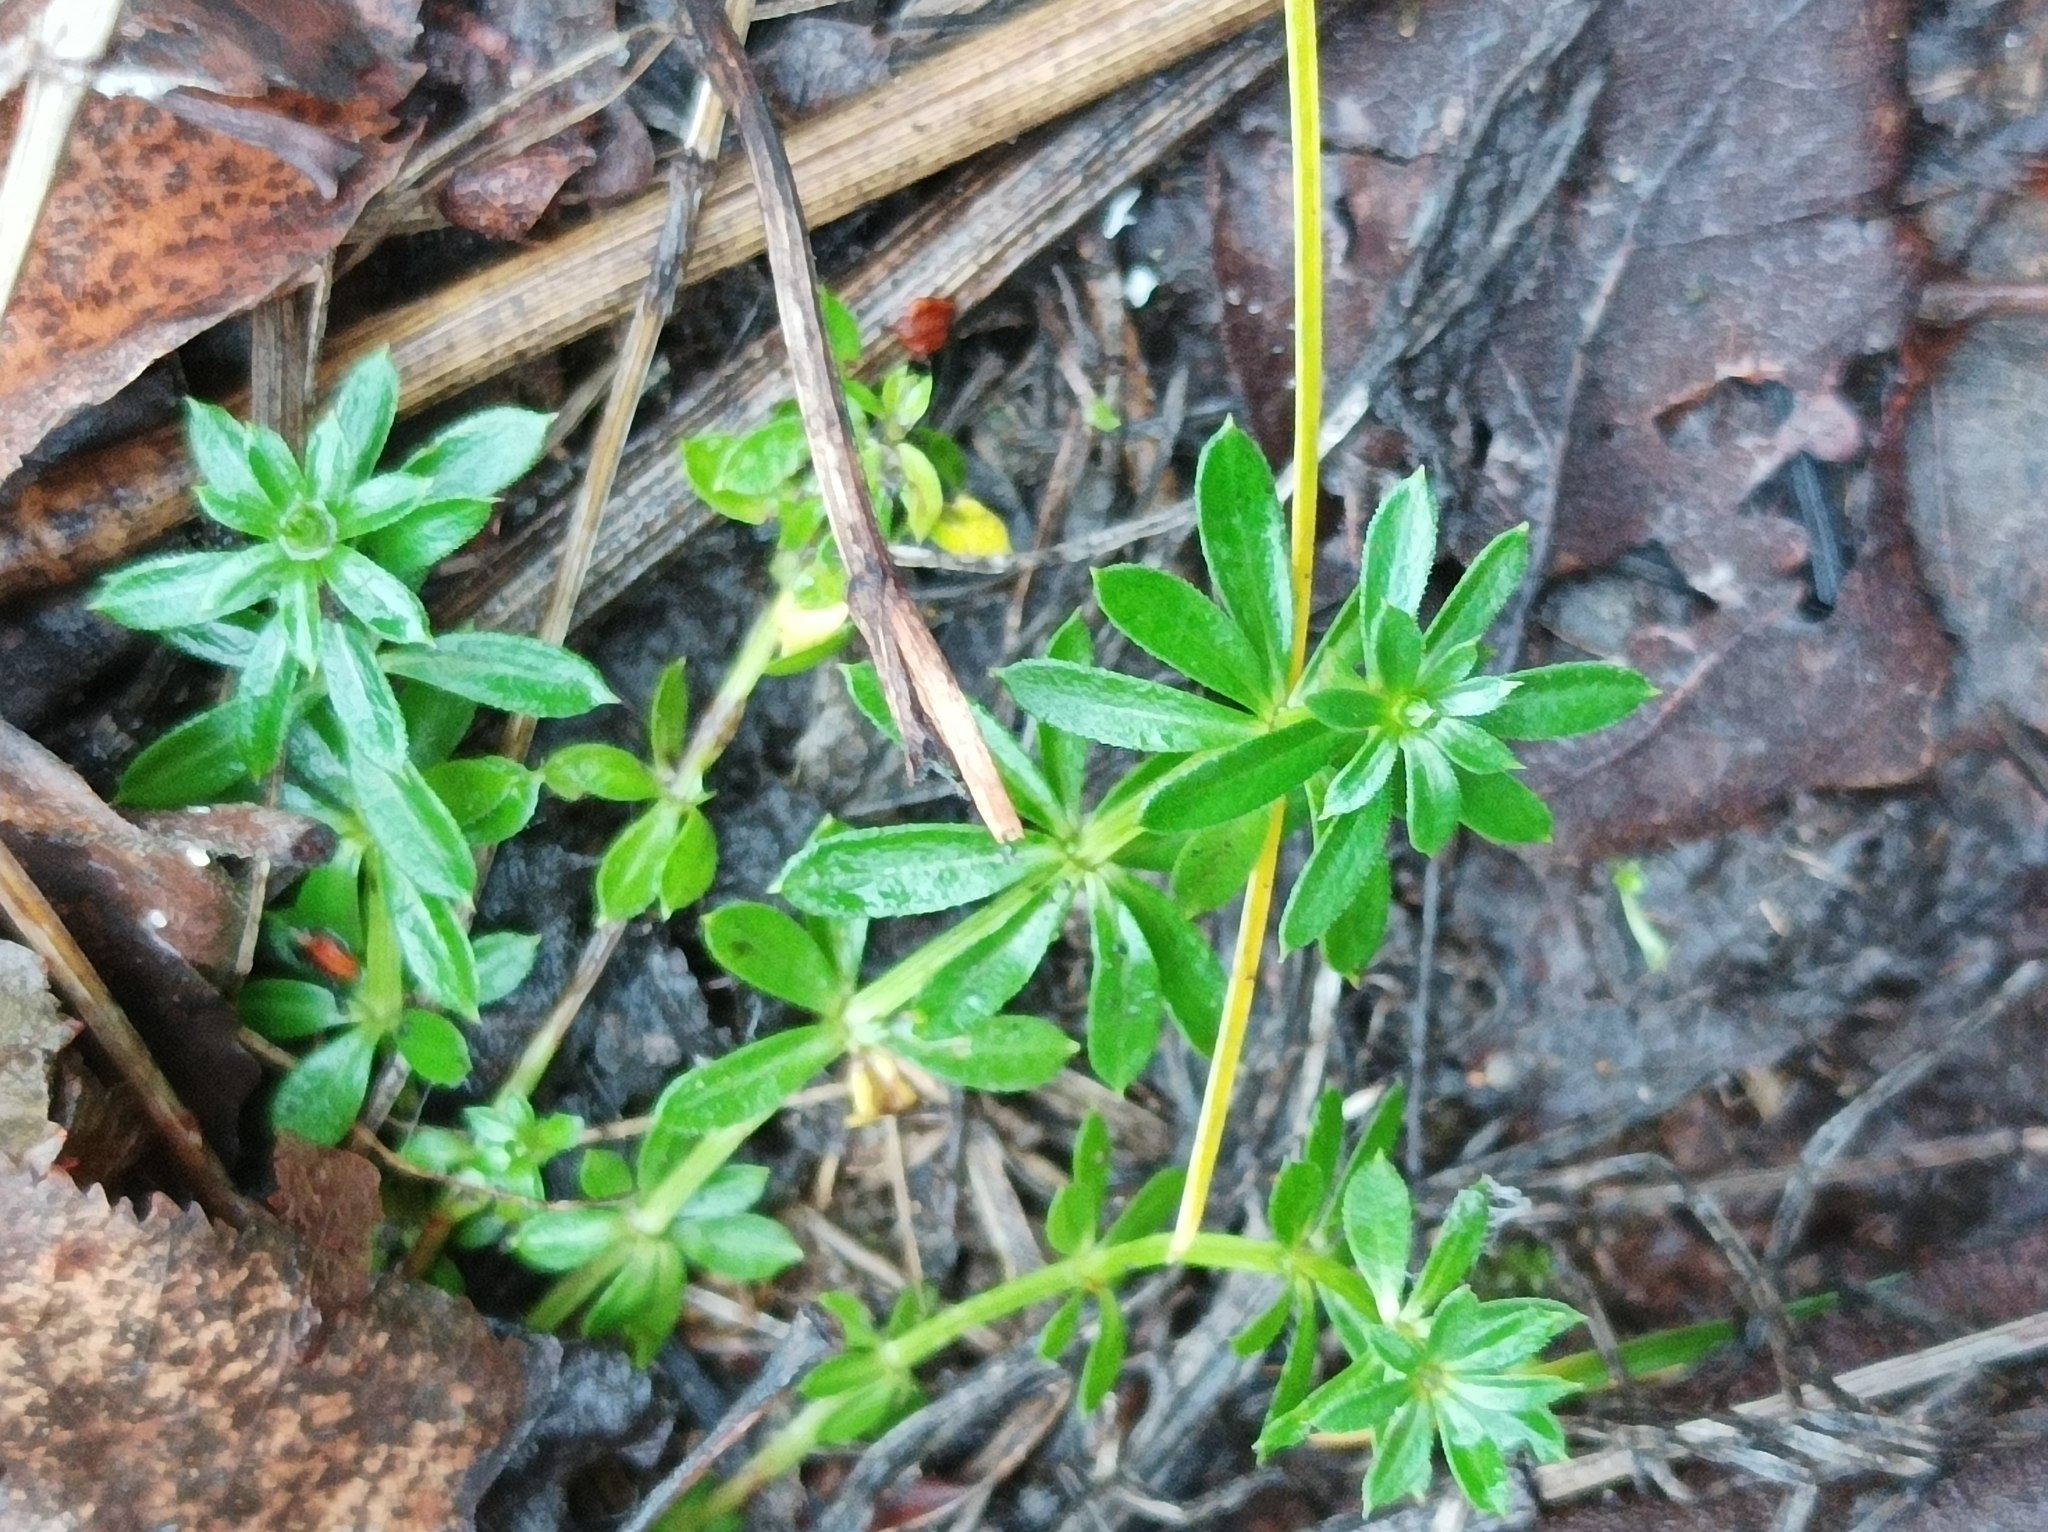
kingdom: Plantae
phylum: Tracheophyta
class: Magnoliopsida
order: Gentianales
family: Rubiaceae
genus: Galium
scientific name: Galium mollugo
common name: Hedge bedstraw
